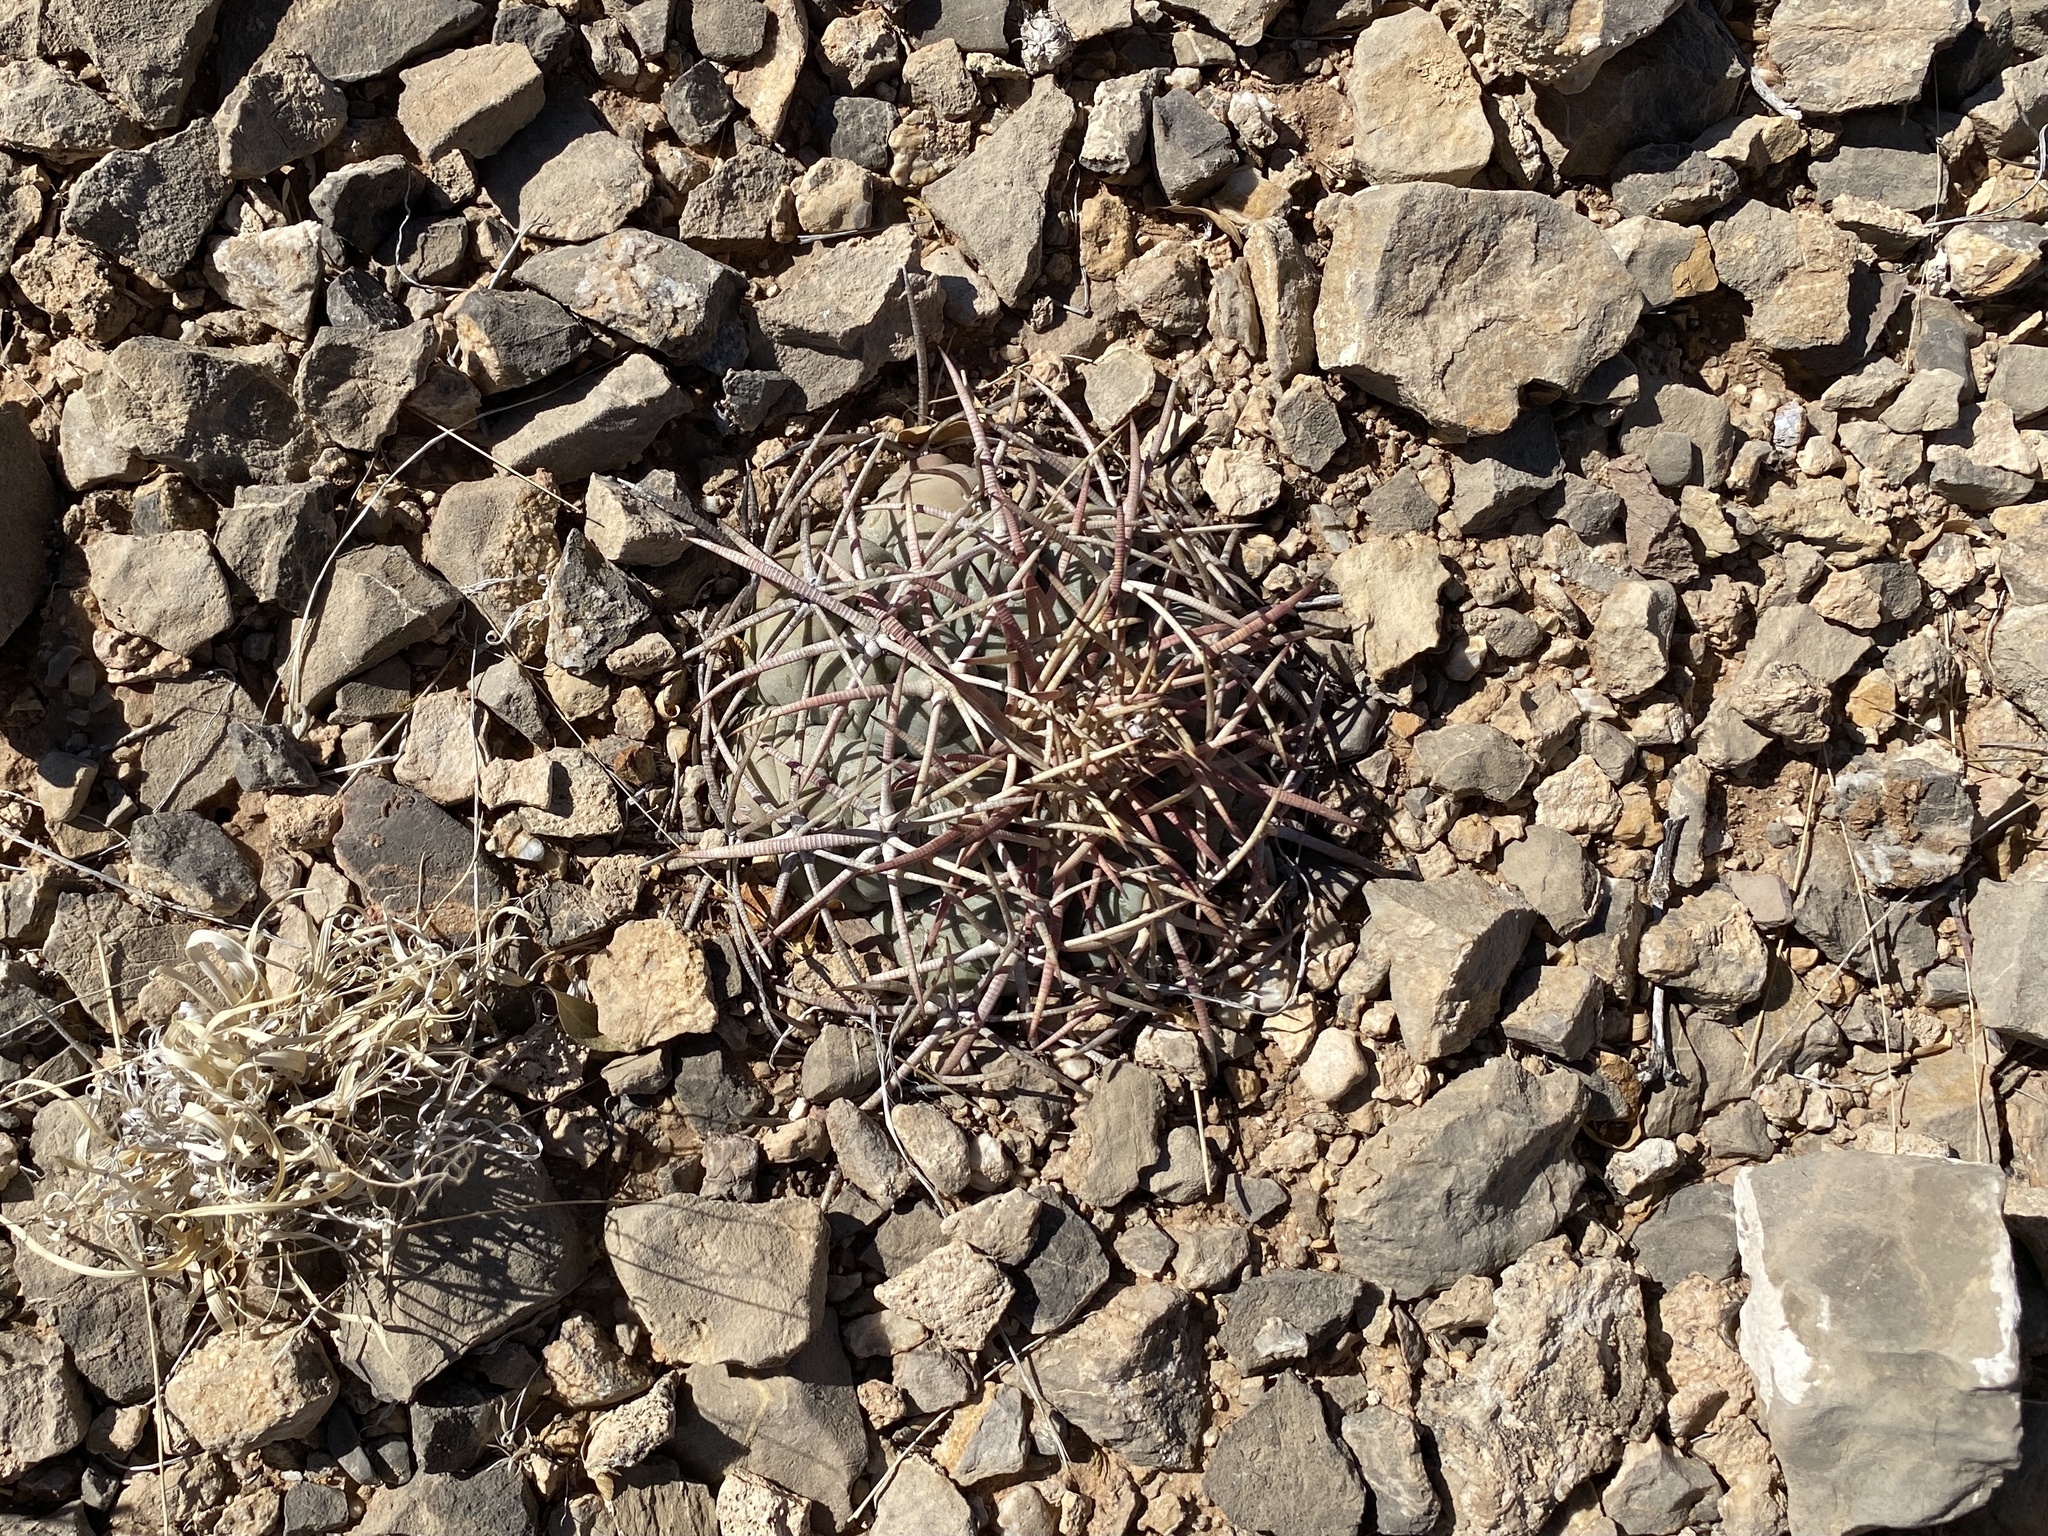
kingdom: Plantae
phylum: Tracheophyta
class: Magnoliopsida
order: Caryophyllales
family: Cactaceae
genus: Echinocactus
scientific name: Echinocactus horizonthalonius
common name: Devilshead
